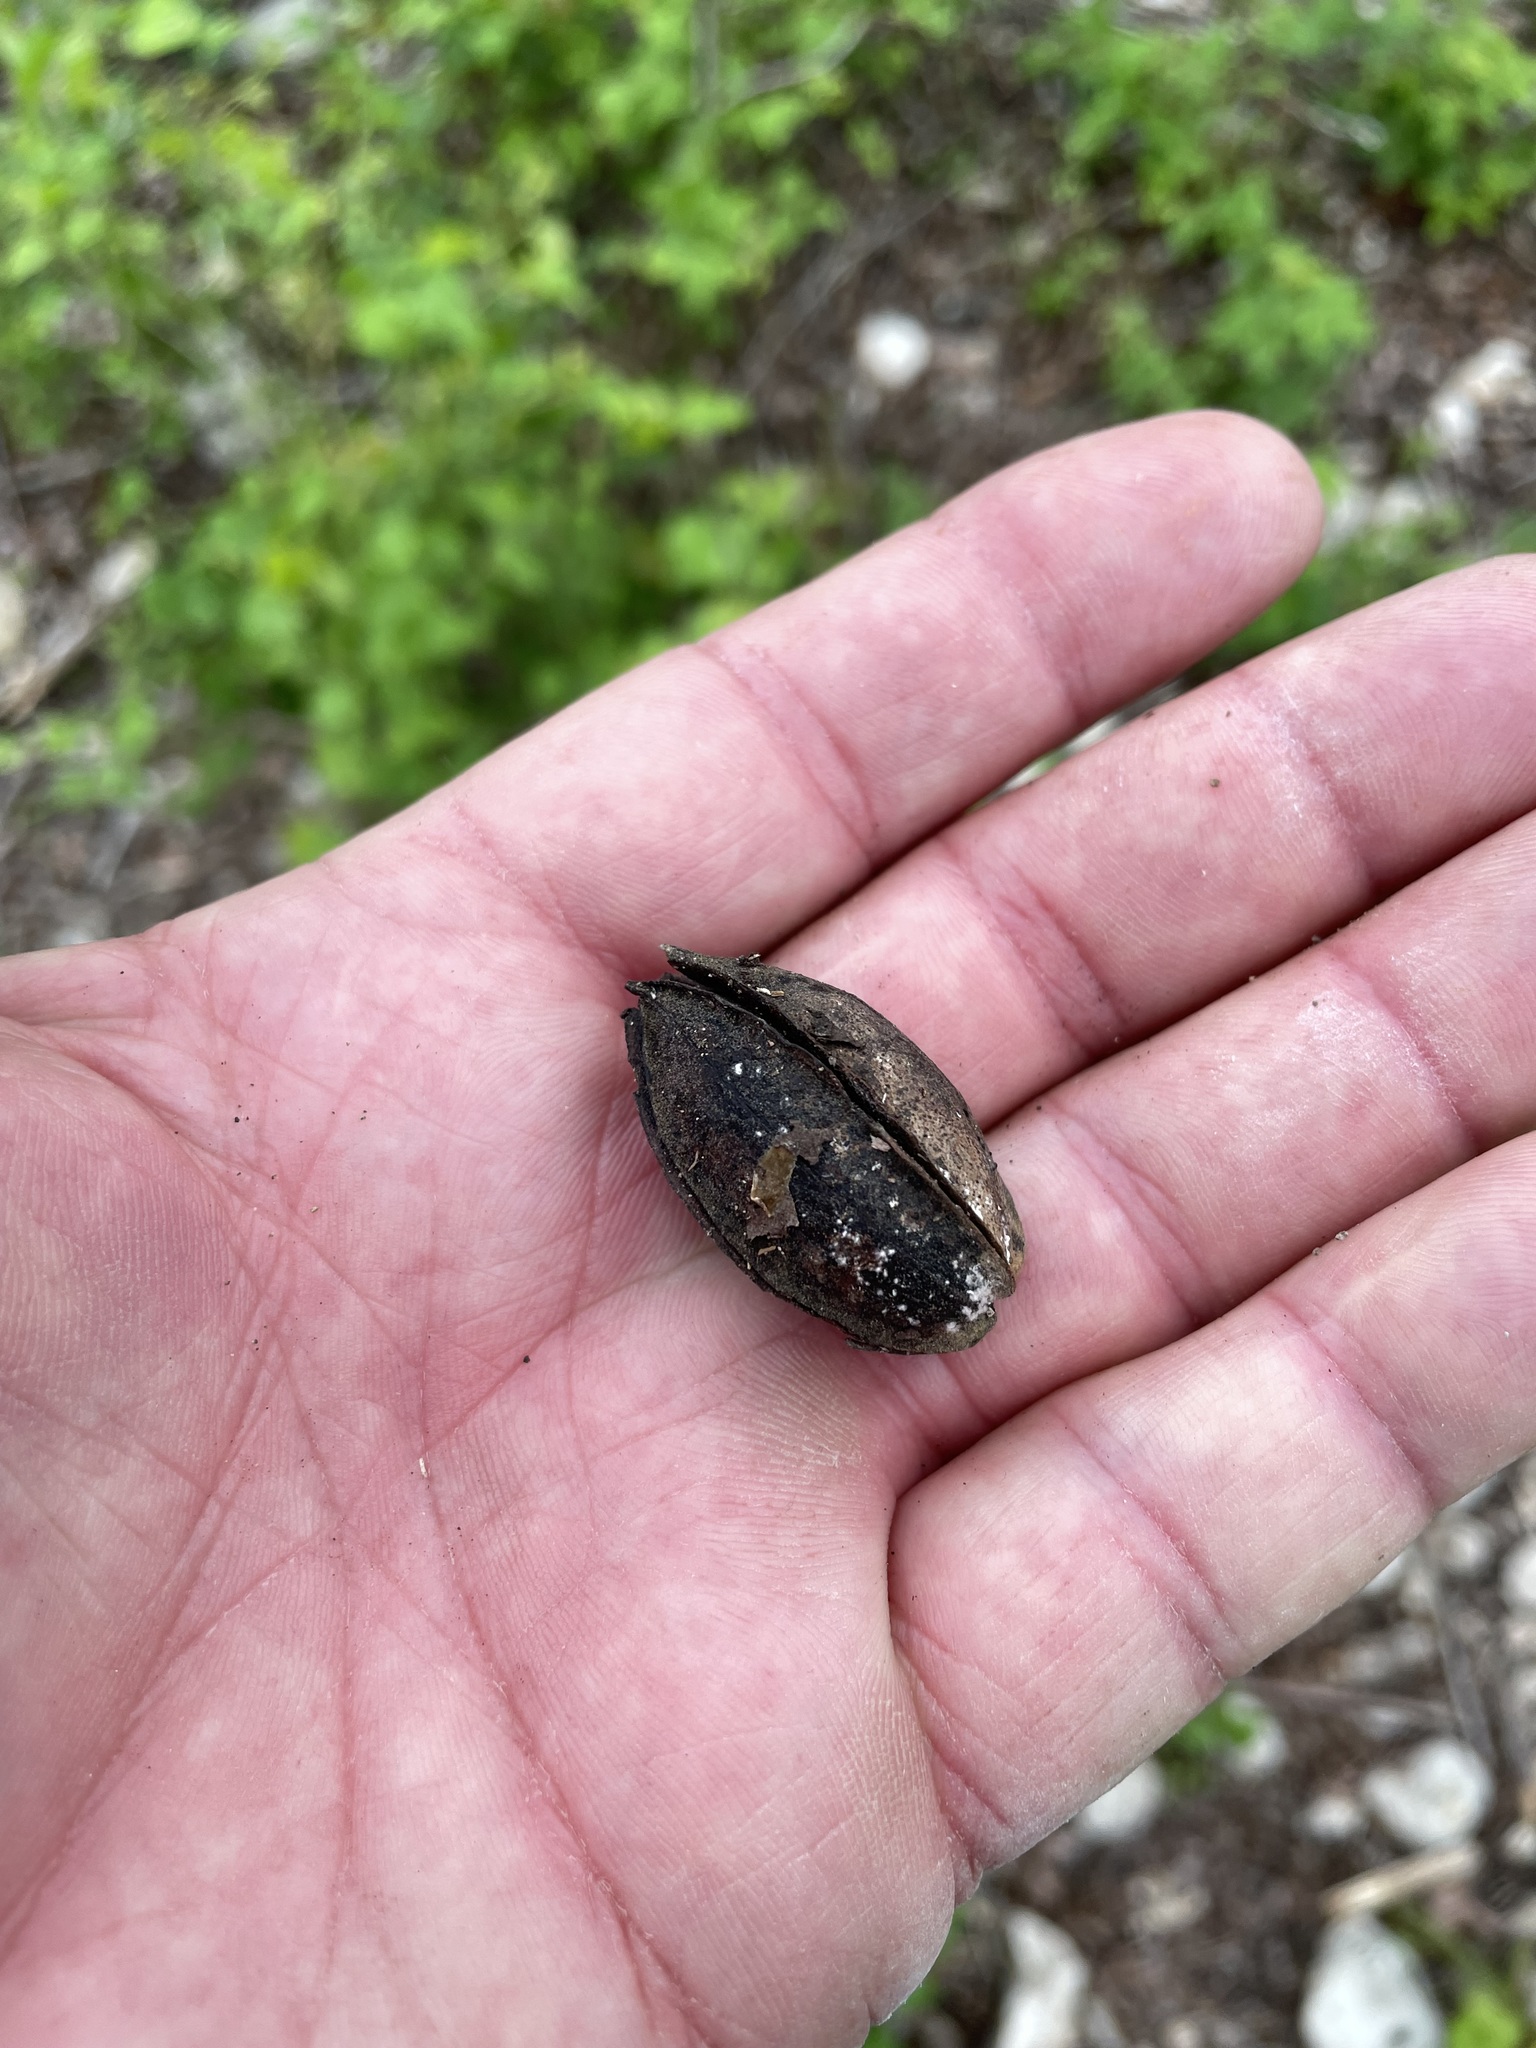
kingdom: Plantae
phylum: Tracheophyta
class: Magnoliopsida
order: Fagales
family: Juglandaceae
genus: Carya
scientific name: Carya illinoinensis
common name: Pecan
